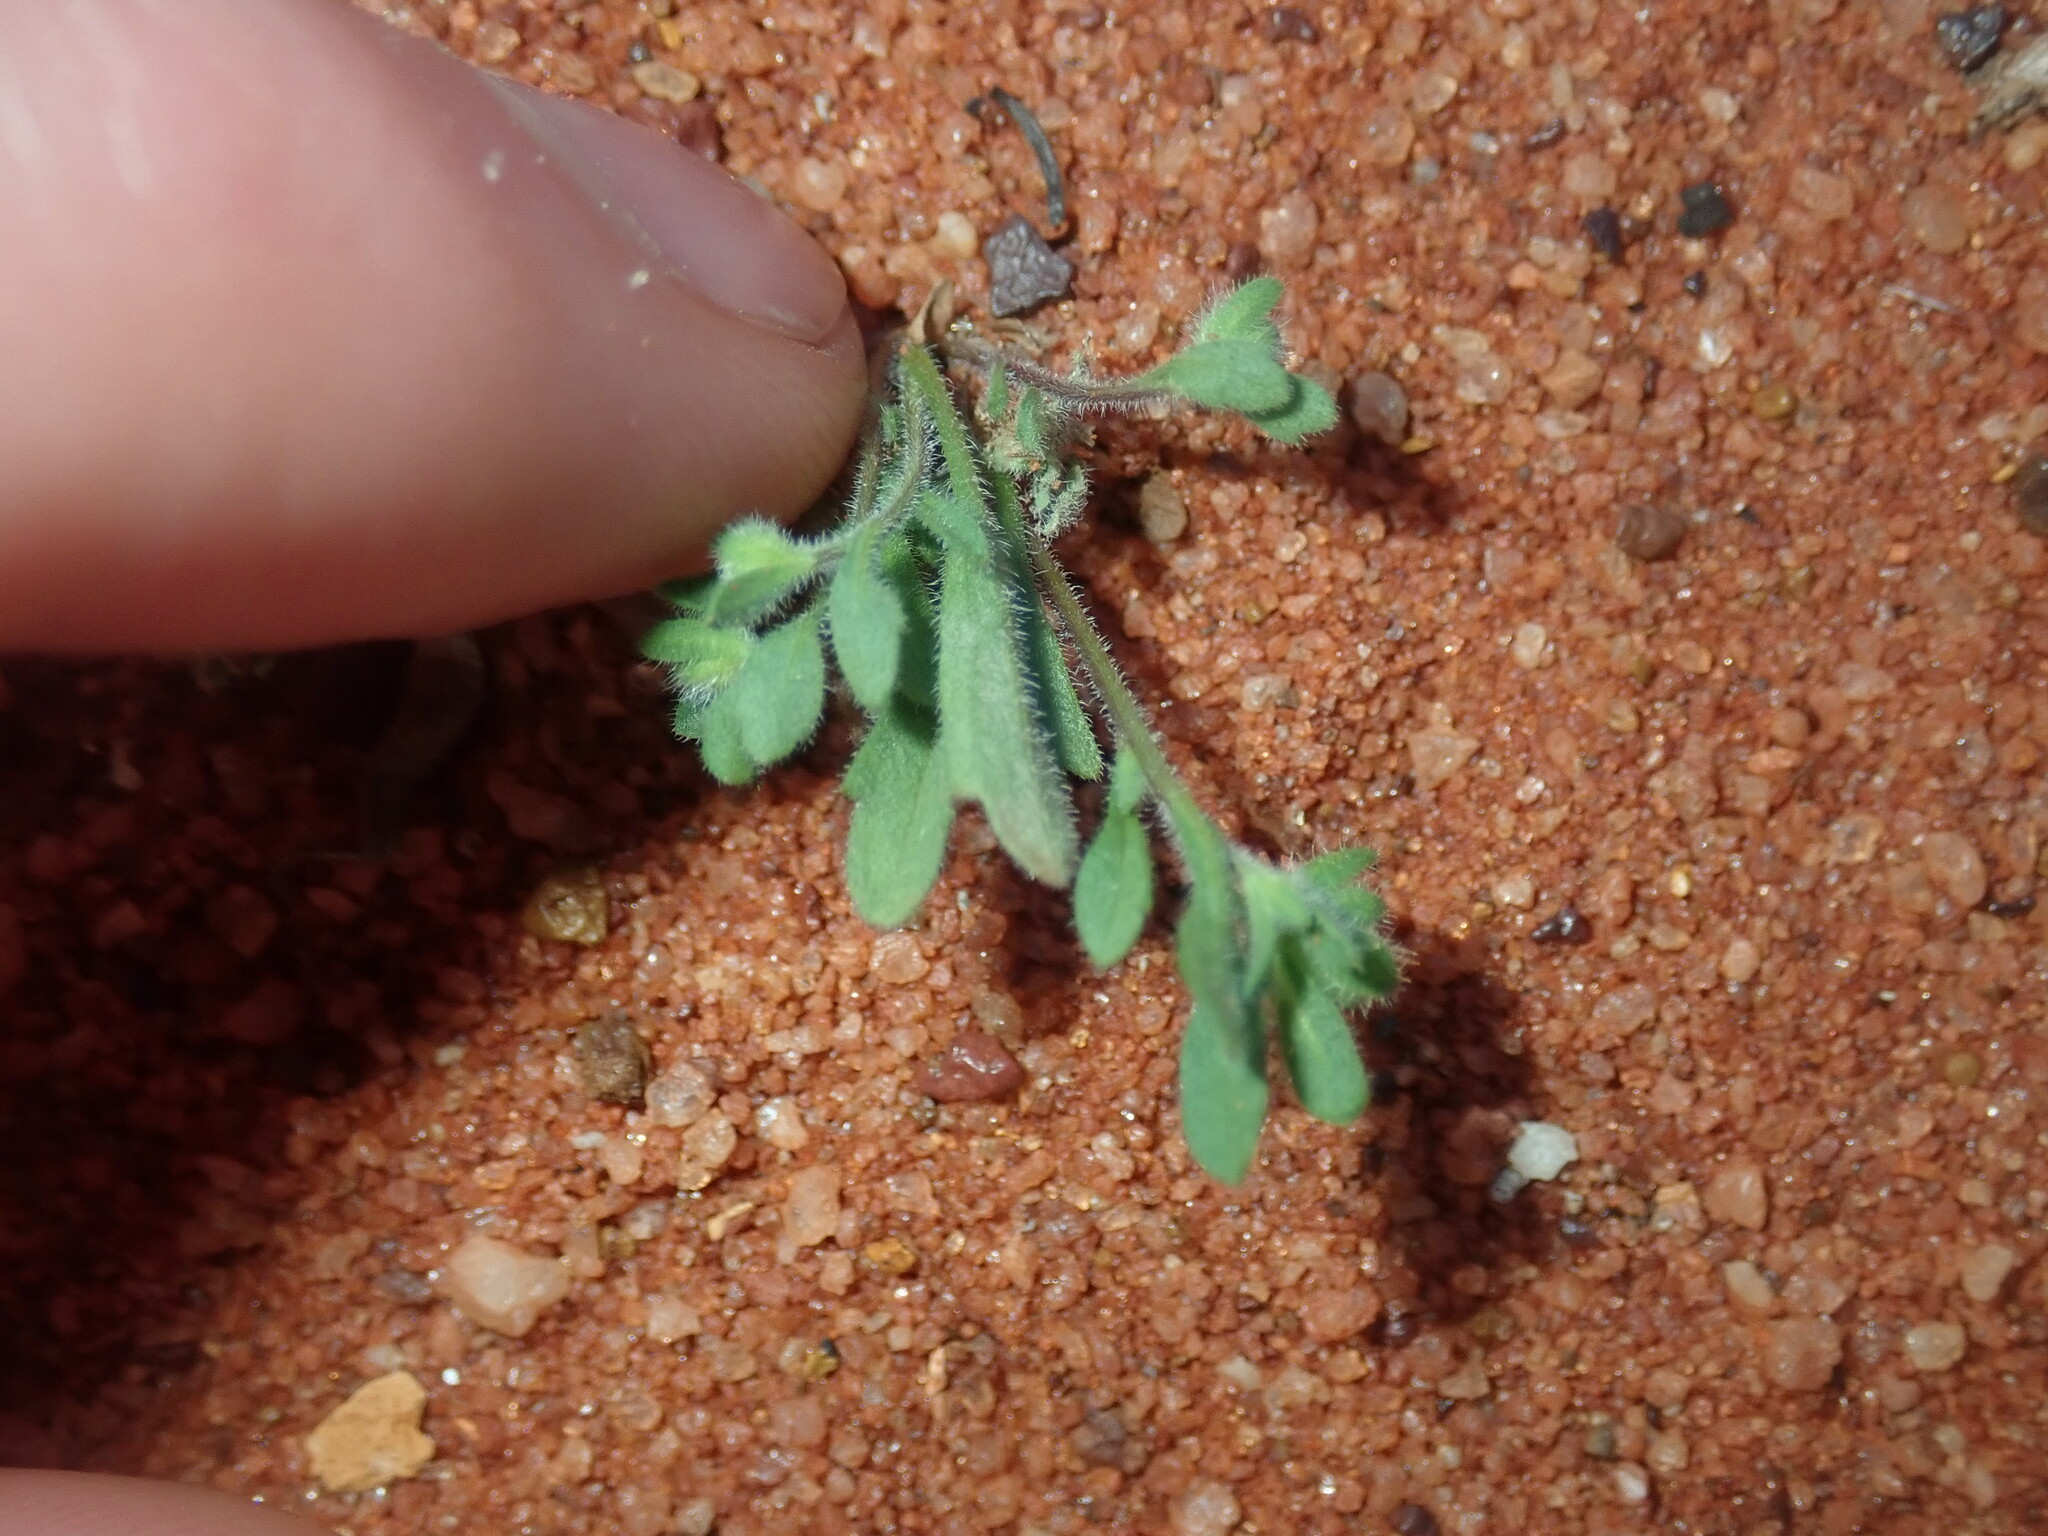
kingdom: Plantae
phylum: Tracheophyta
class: Magnoliopsida
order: Asterales
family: Asteraceae
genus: Calotis
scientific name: Calotis hispidula
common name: Bogan-flea
